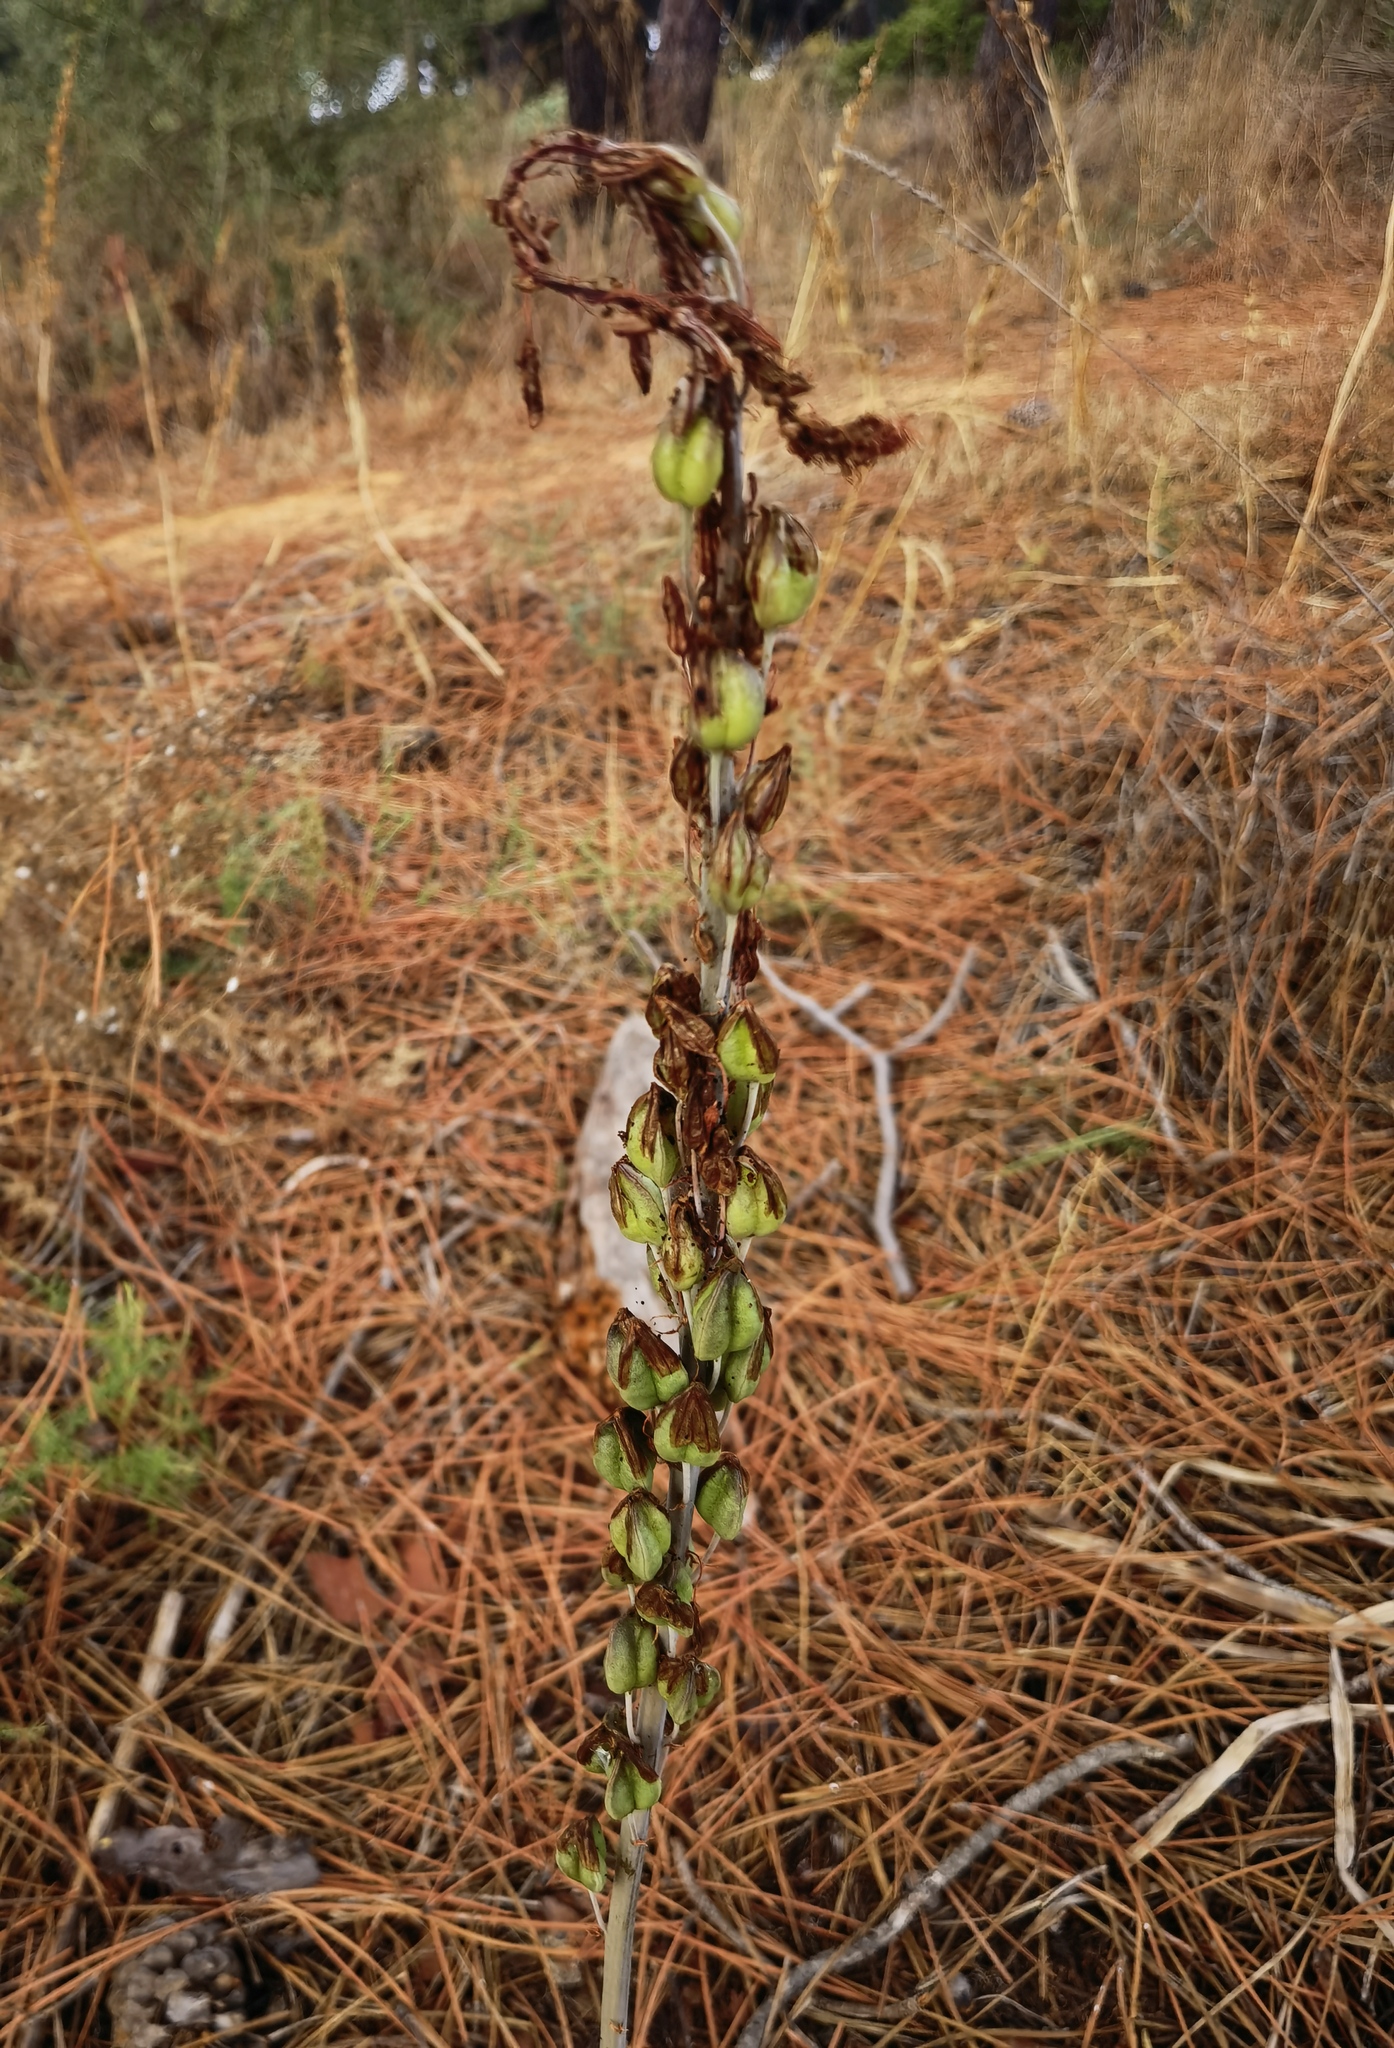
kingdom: Plantae
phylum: Tracheophyta
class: Liliopsida
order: Asparagales
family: Asparagaceae
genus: Drimia
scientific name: Drimia maritima
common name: Maritime squill
